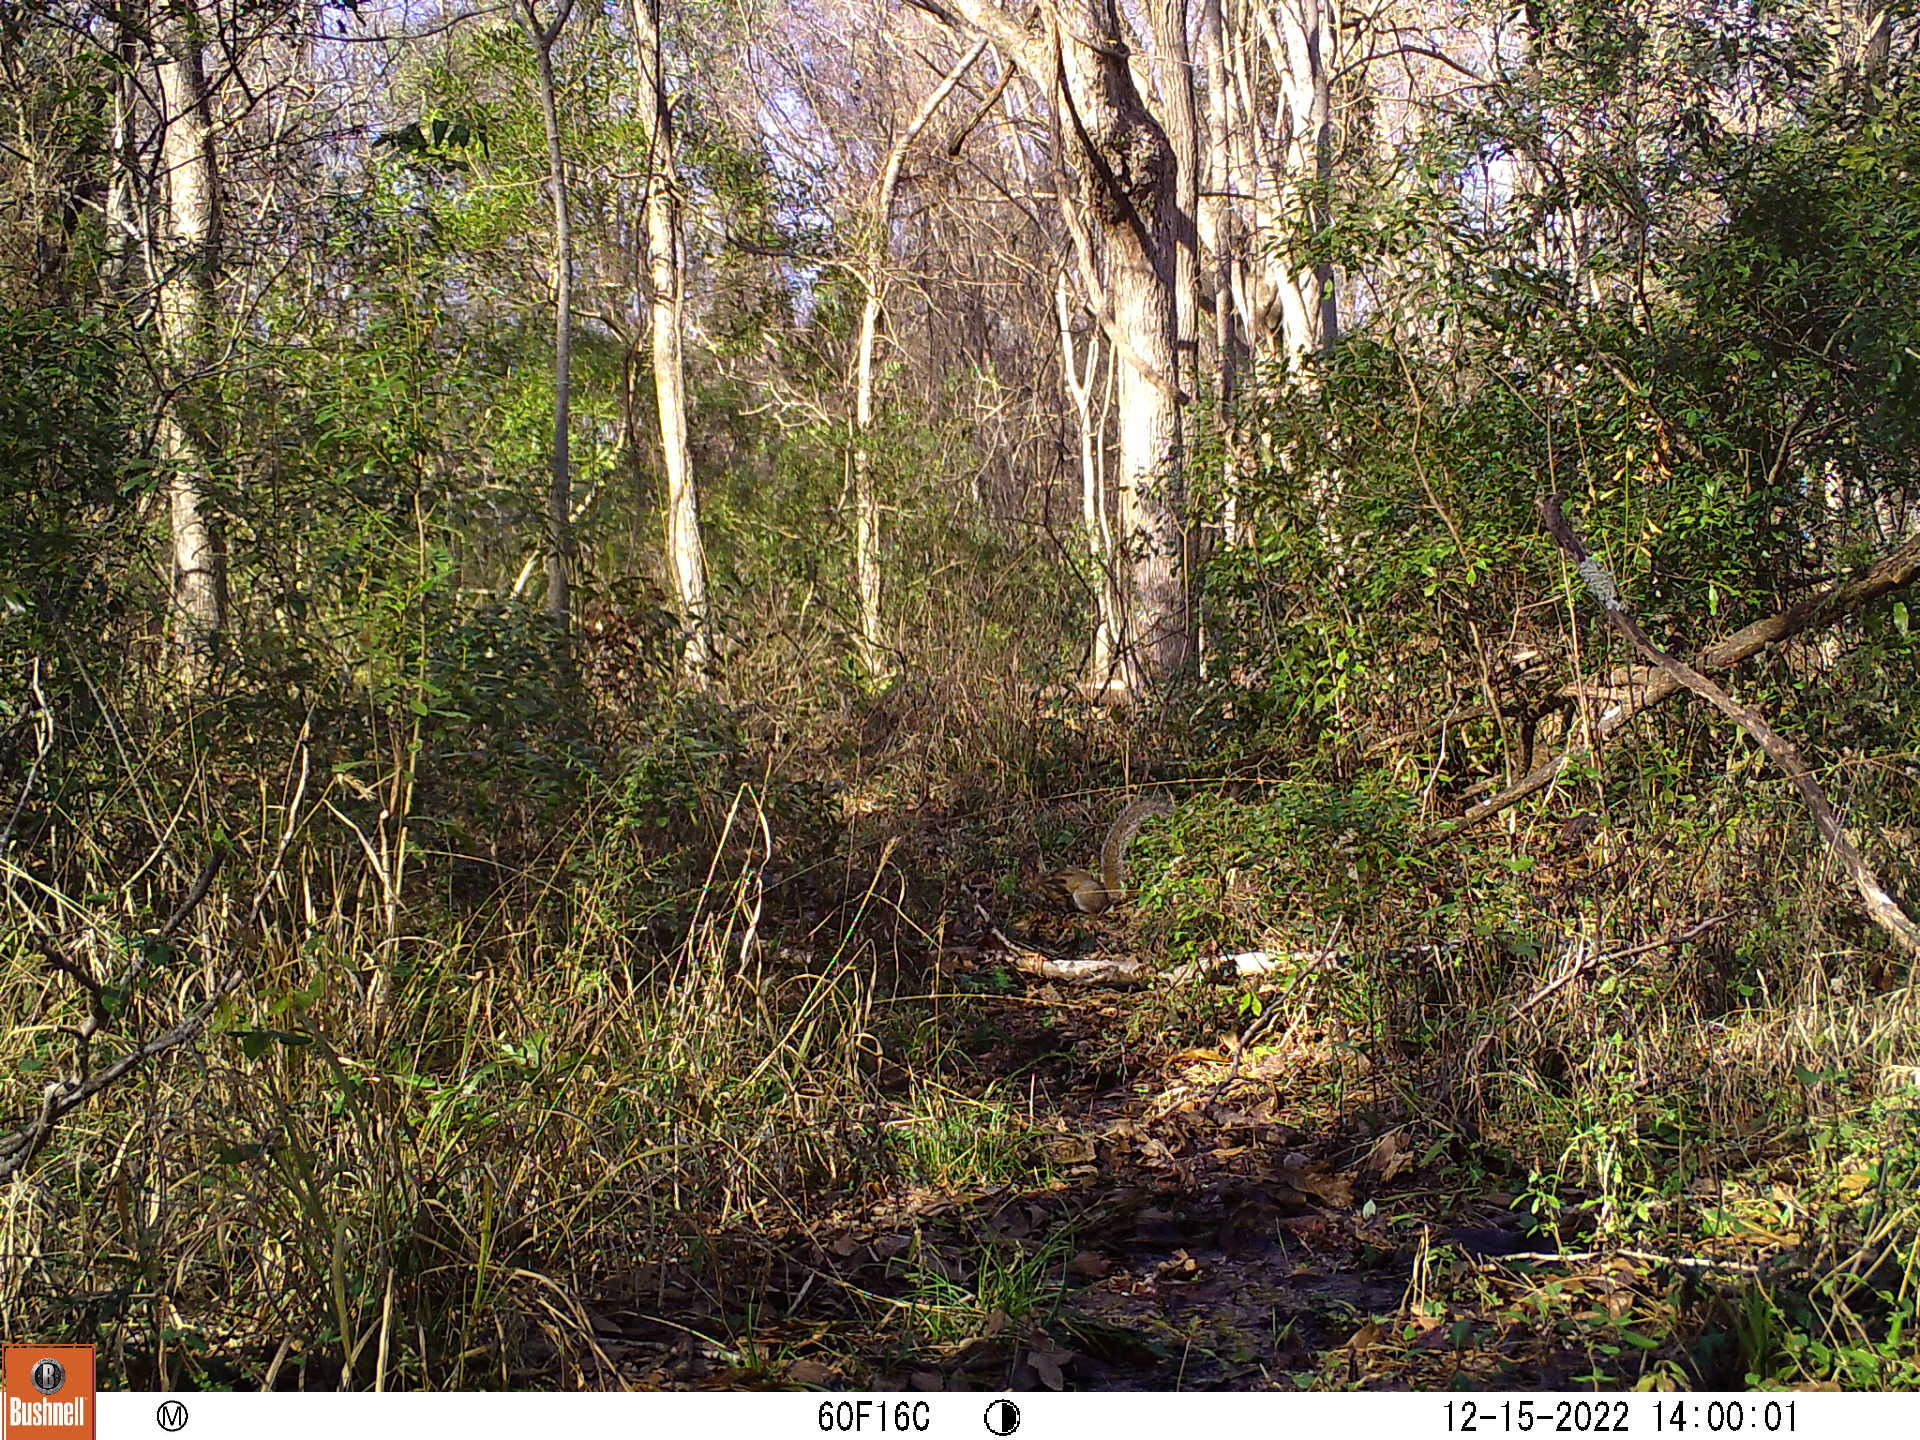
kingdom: Animalia
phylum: Chordata
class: Mammalia
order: Rodentia
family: Sciuridae
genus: Sciurus
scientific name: Sciurus carolinensis
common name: Eastern gray squirrel
